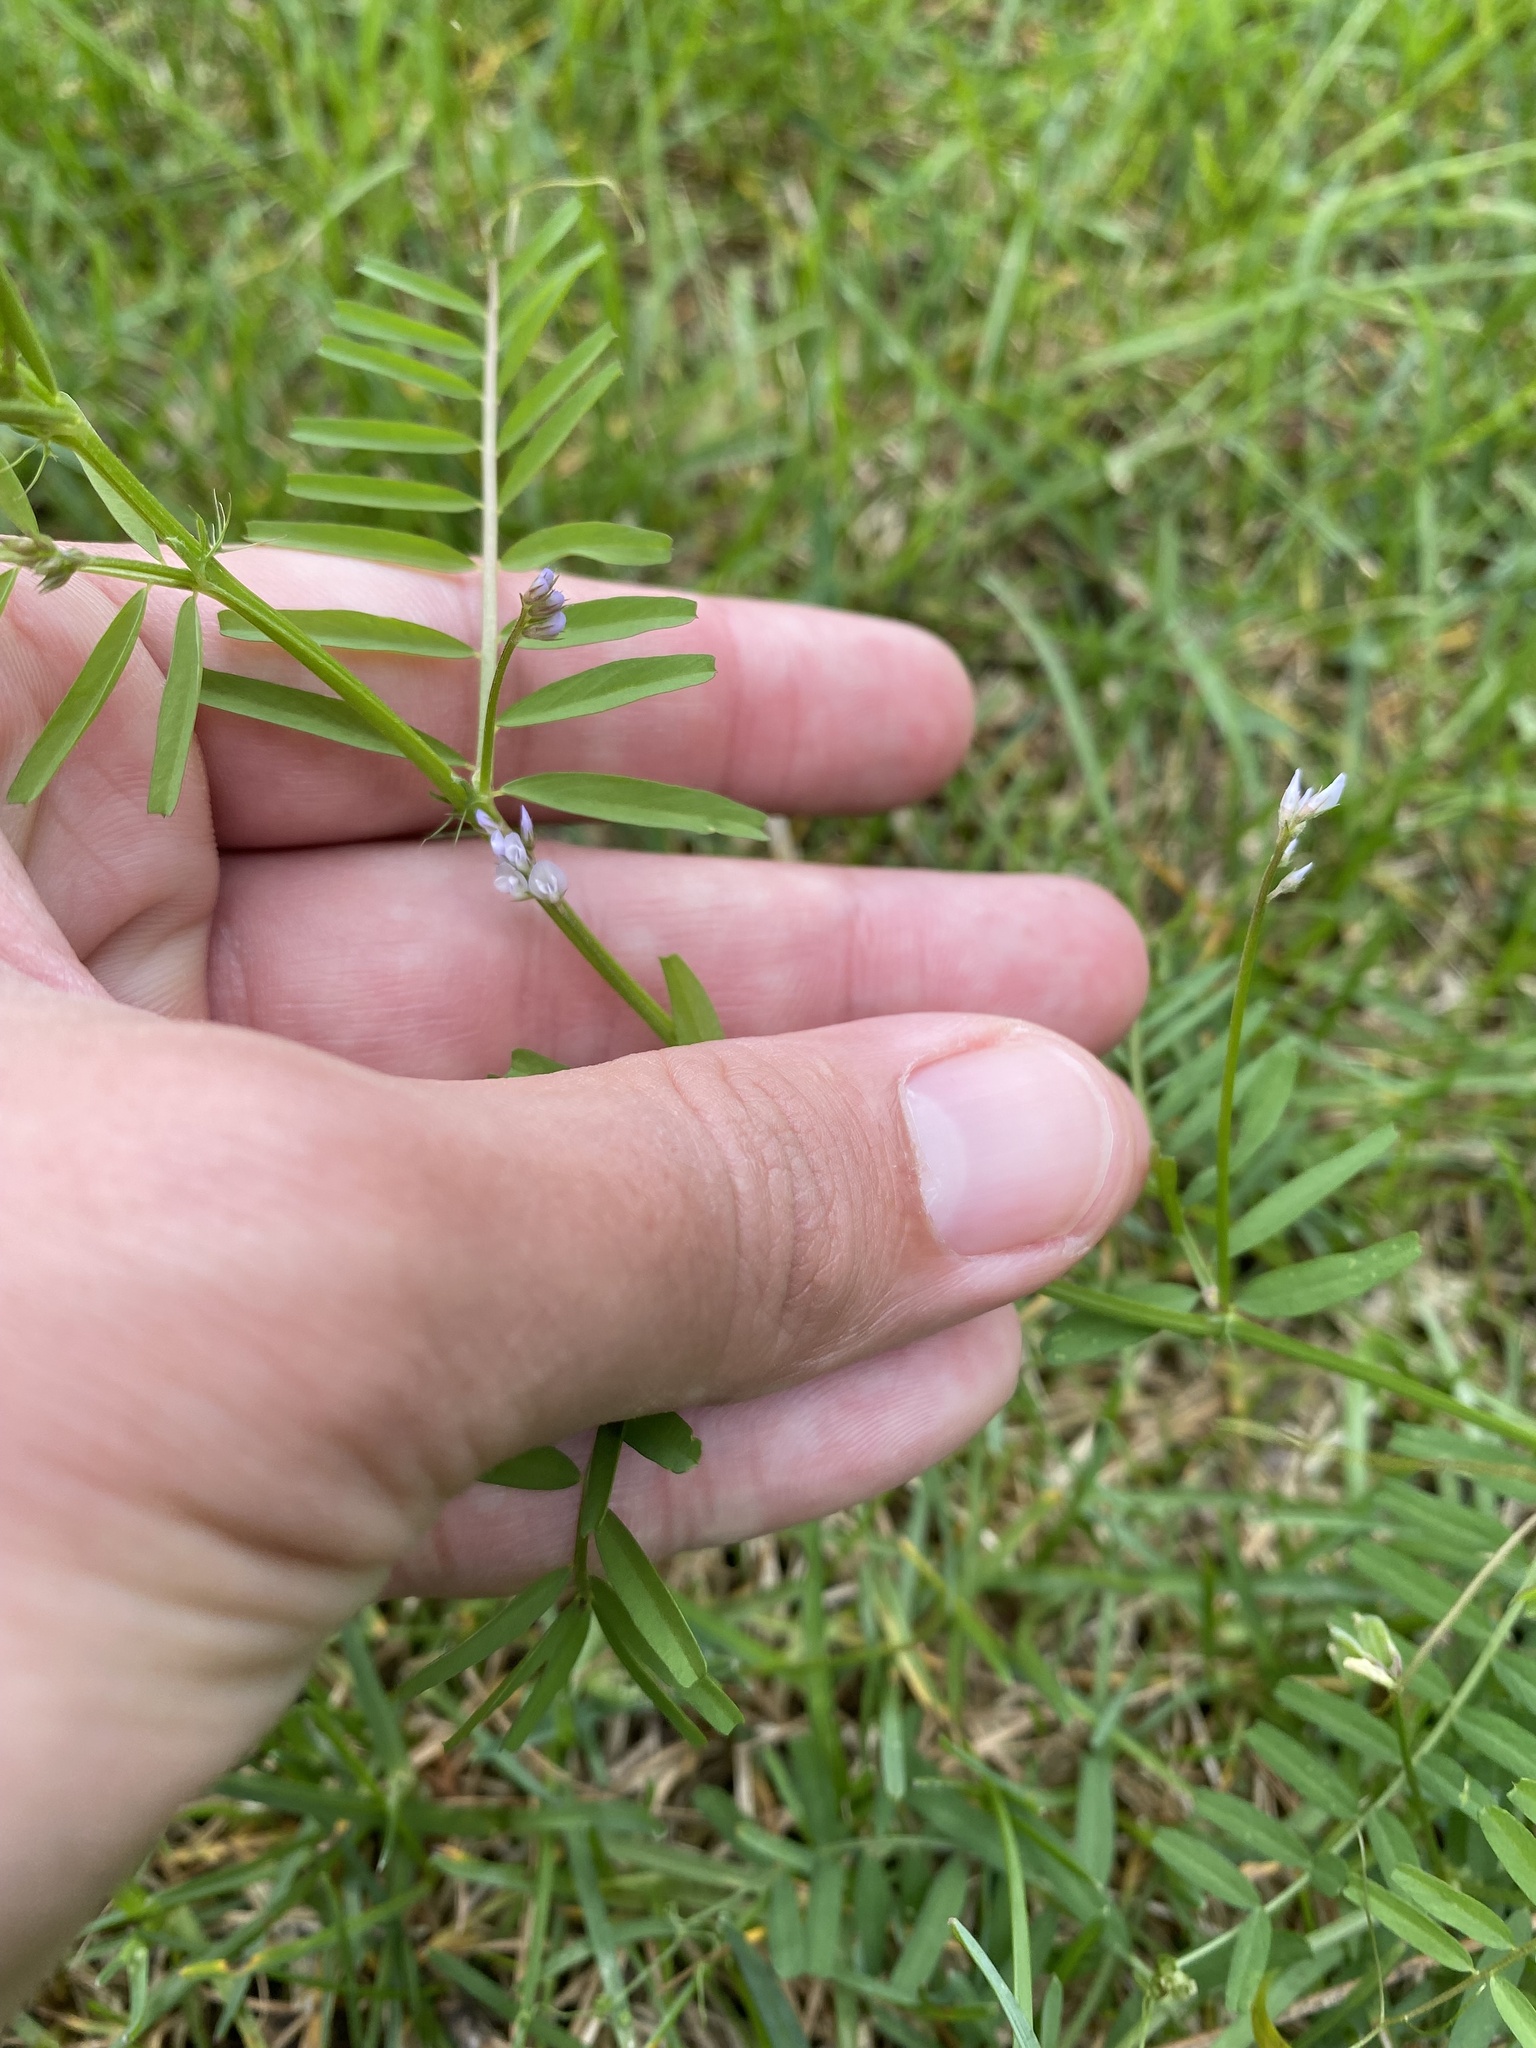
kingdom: Plantae
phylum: Tracheophyta
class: Magnoliopsida
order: Fabales
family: Fabaceae
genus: Vicia
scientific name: Vicia hirsuta
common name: Tiny vetch
